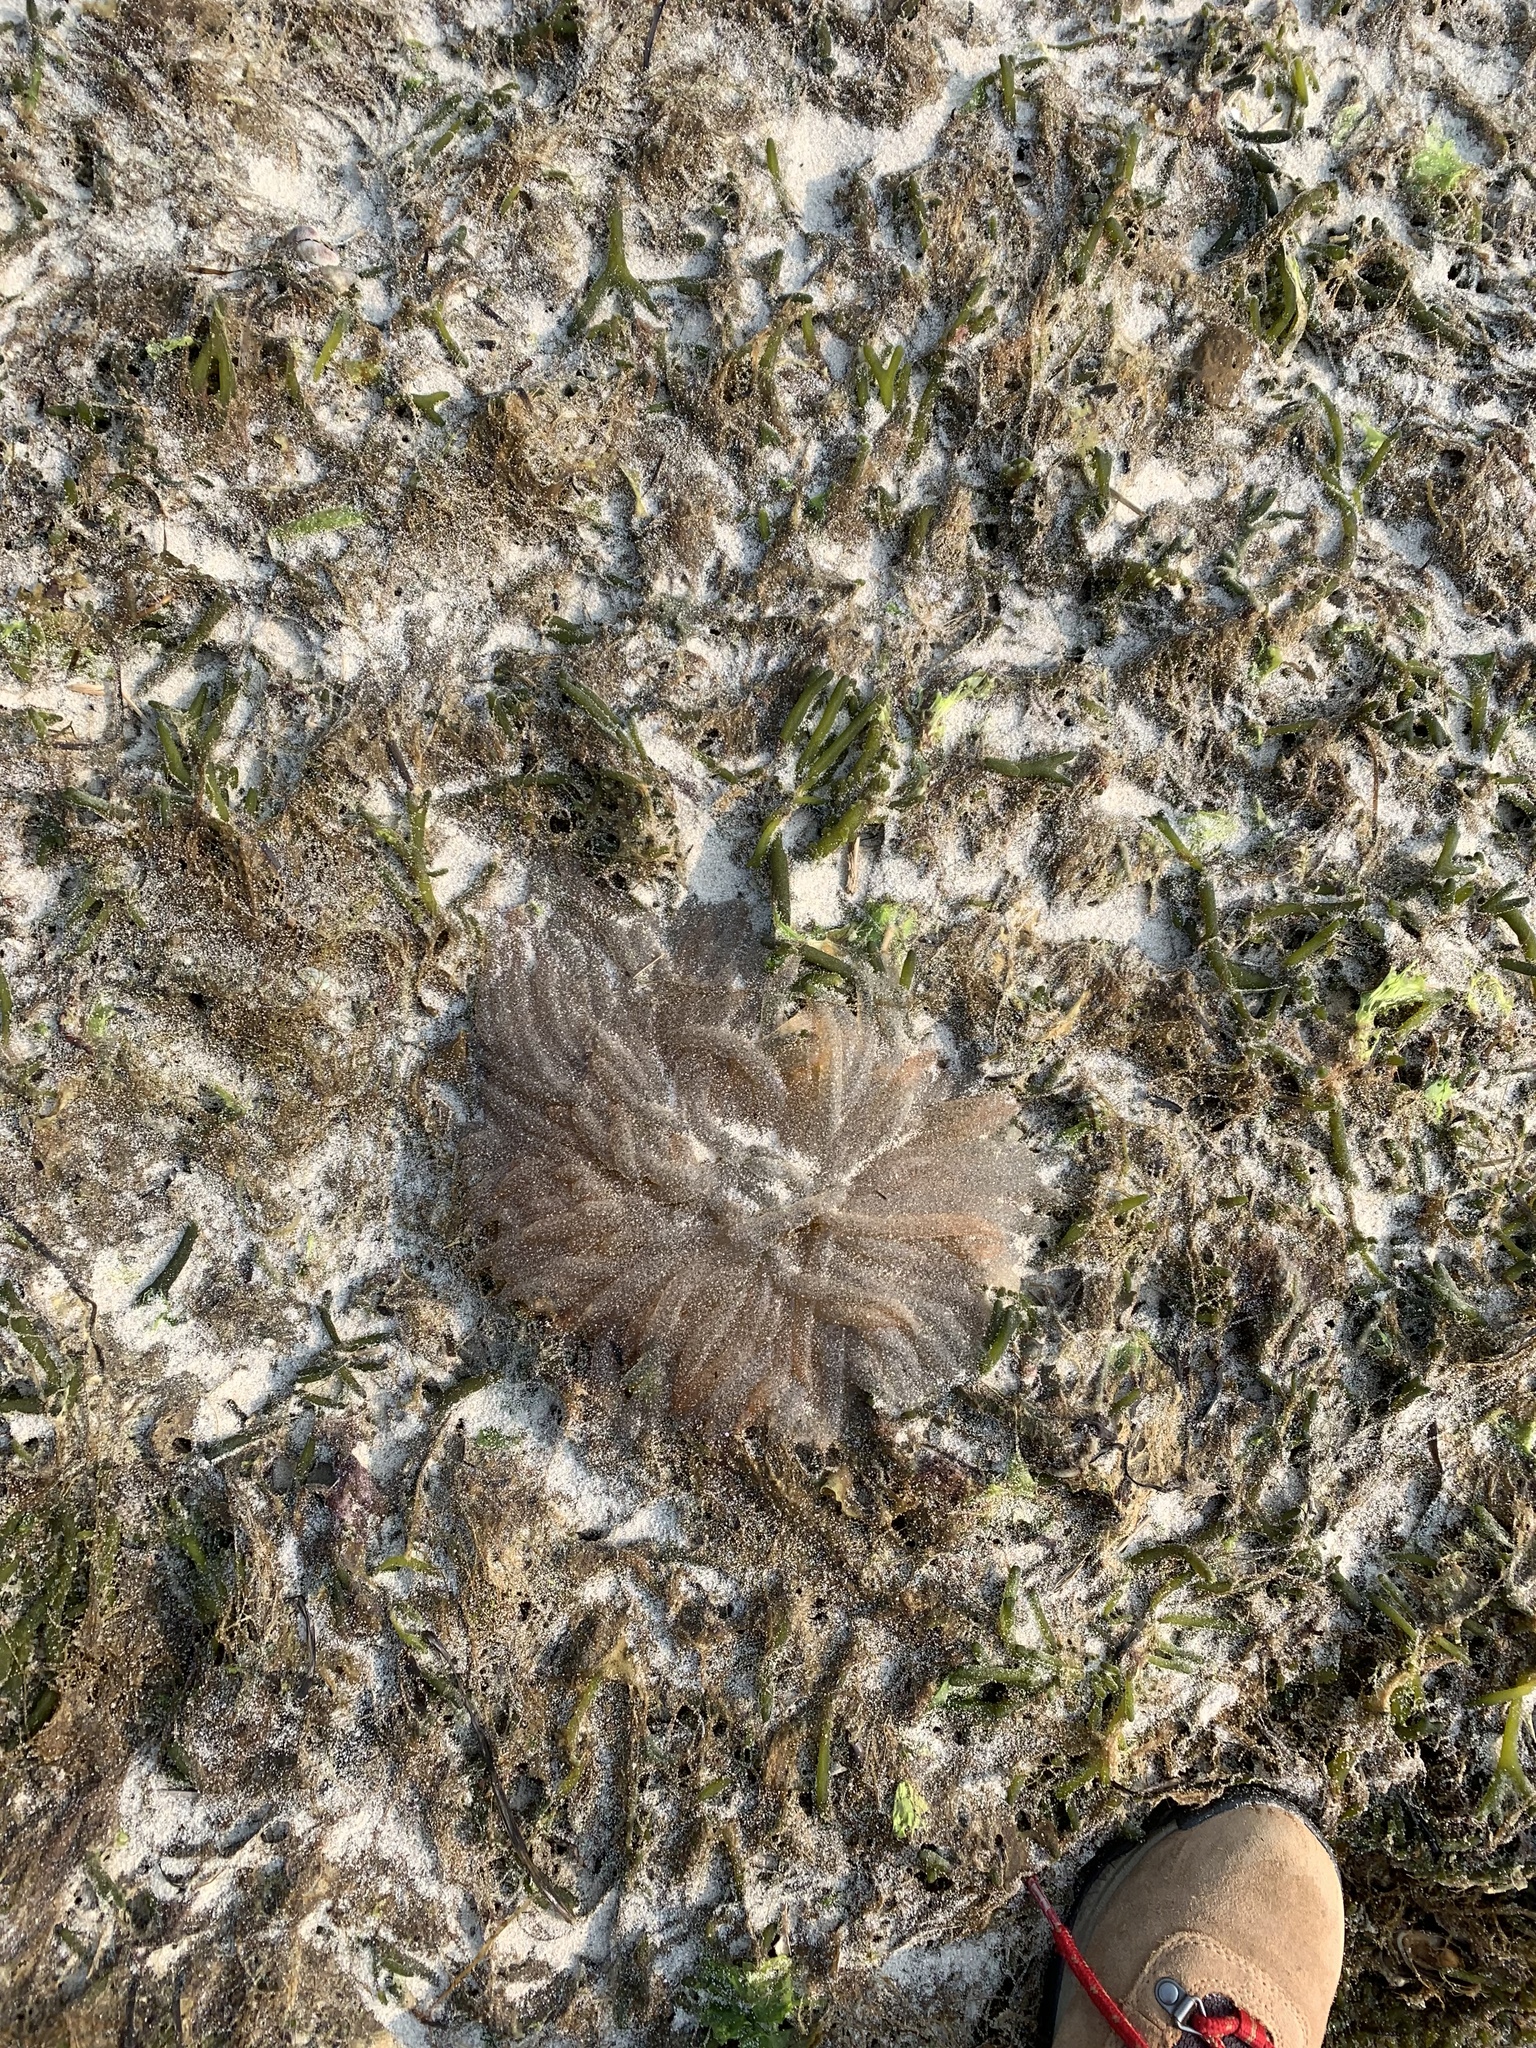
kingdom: Animalia
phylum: Mollusca
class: Cephalopoda
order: Myopsida
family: Loliginidae
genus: Doryteuthis
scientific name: Doryteuthis pealeii
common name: Long-finned inshore squid
